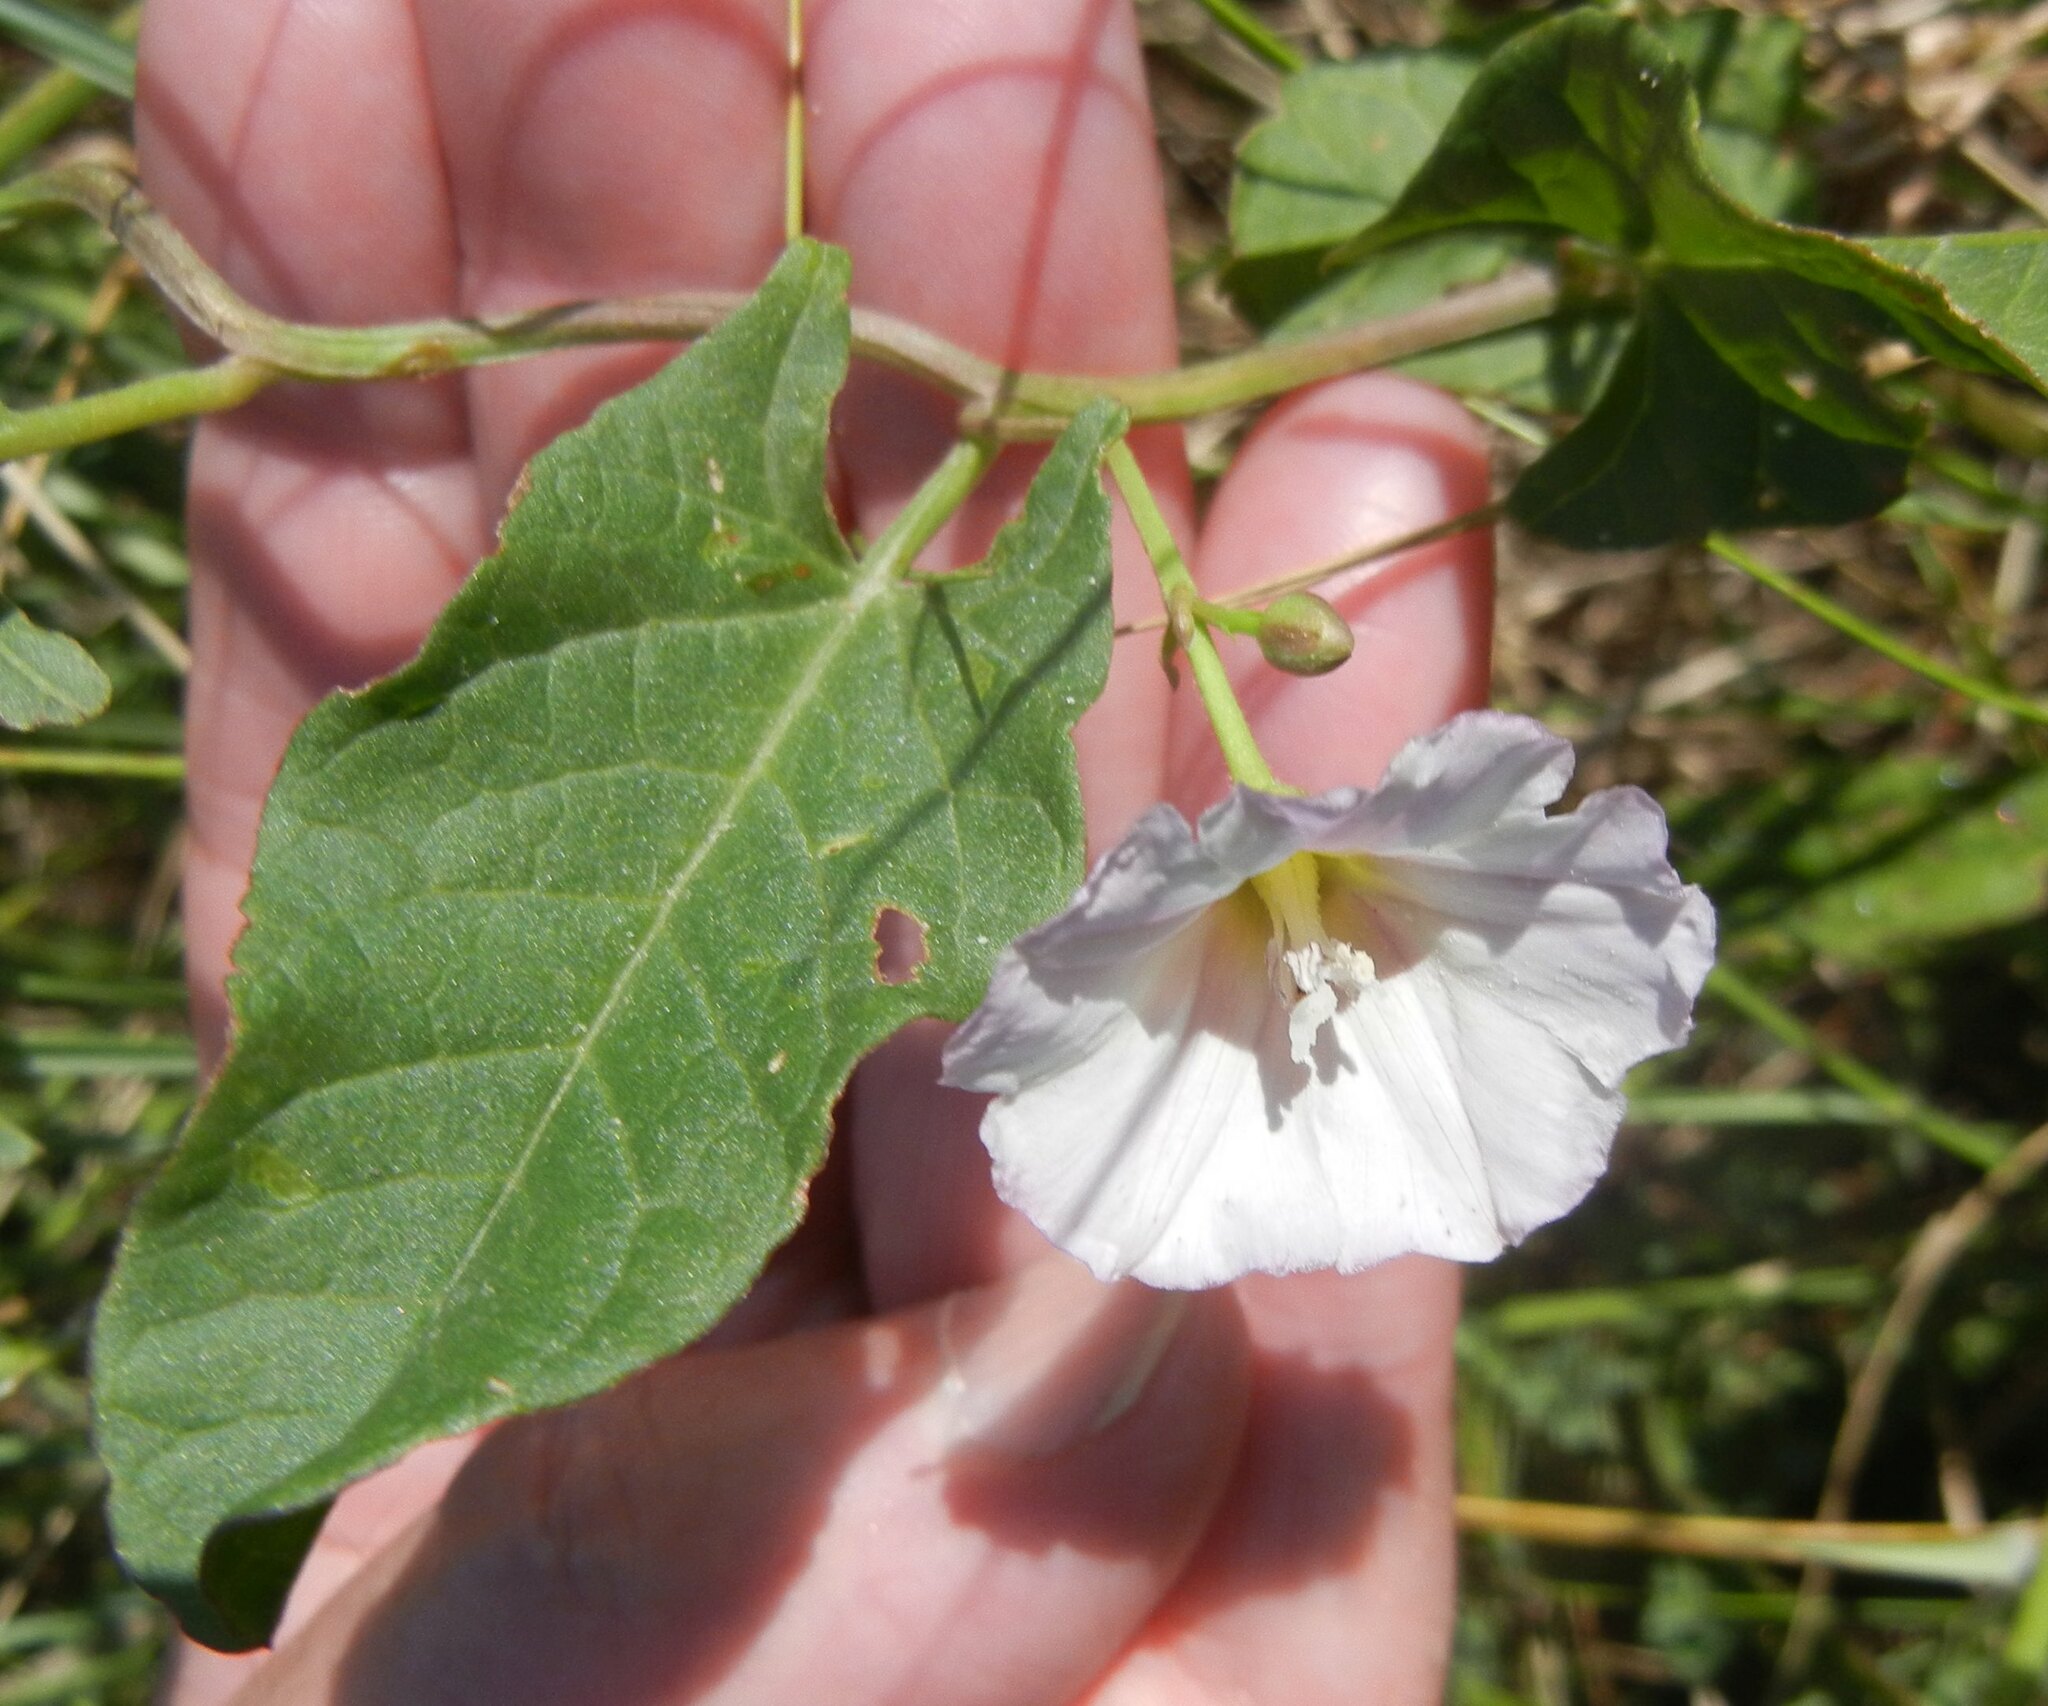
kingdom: Plantae
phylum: Tracheophyta
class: Magnoliopsida
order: Solanales
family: Convolvulaceae
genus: Convolvulus
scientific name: Convolvulus arvensis
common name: Field bindweed
